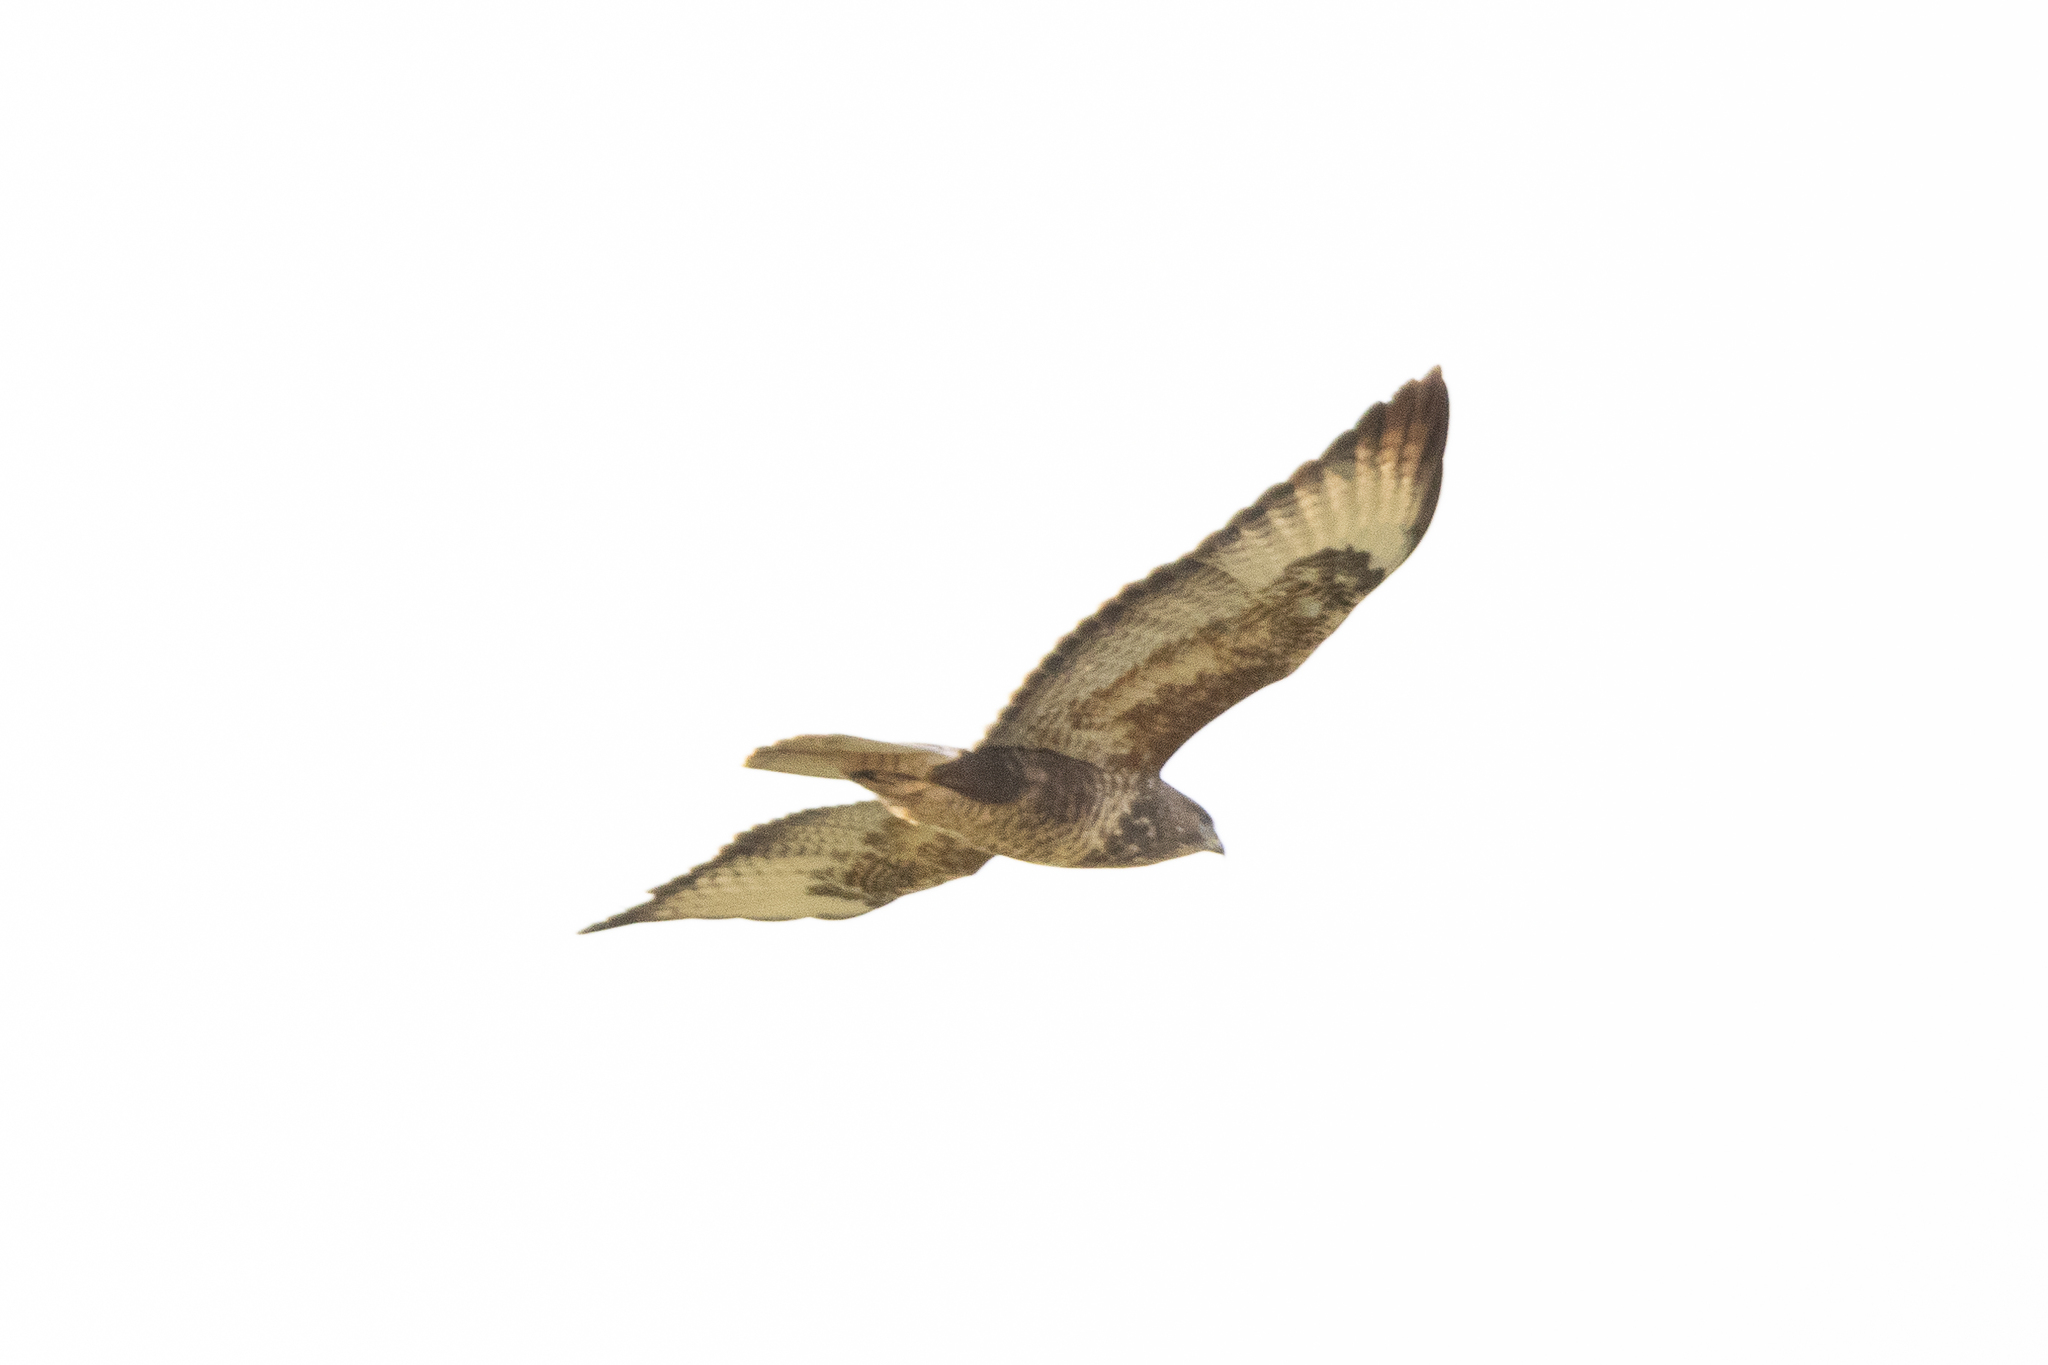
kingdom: Animalia
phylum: Chordata
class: Aves
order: Accipitriformes
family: Accipitridae
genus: Buteo
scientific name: Buteo buteo
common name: Common buzzard
